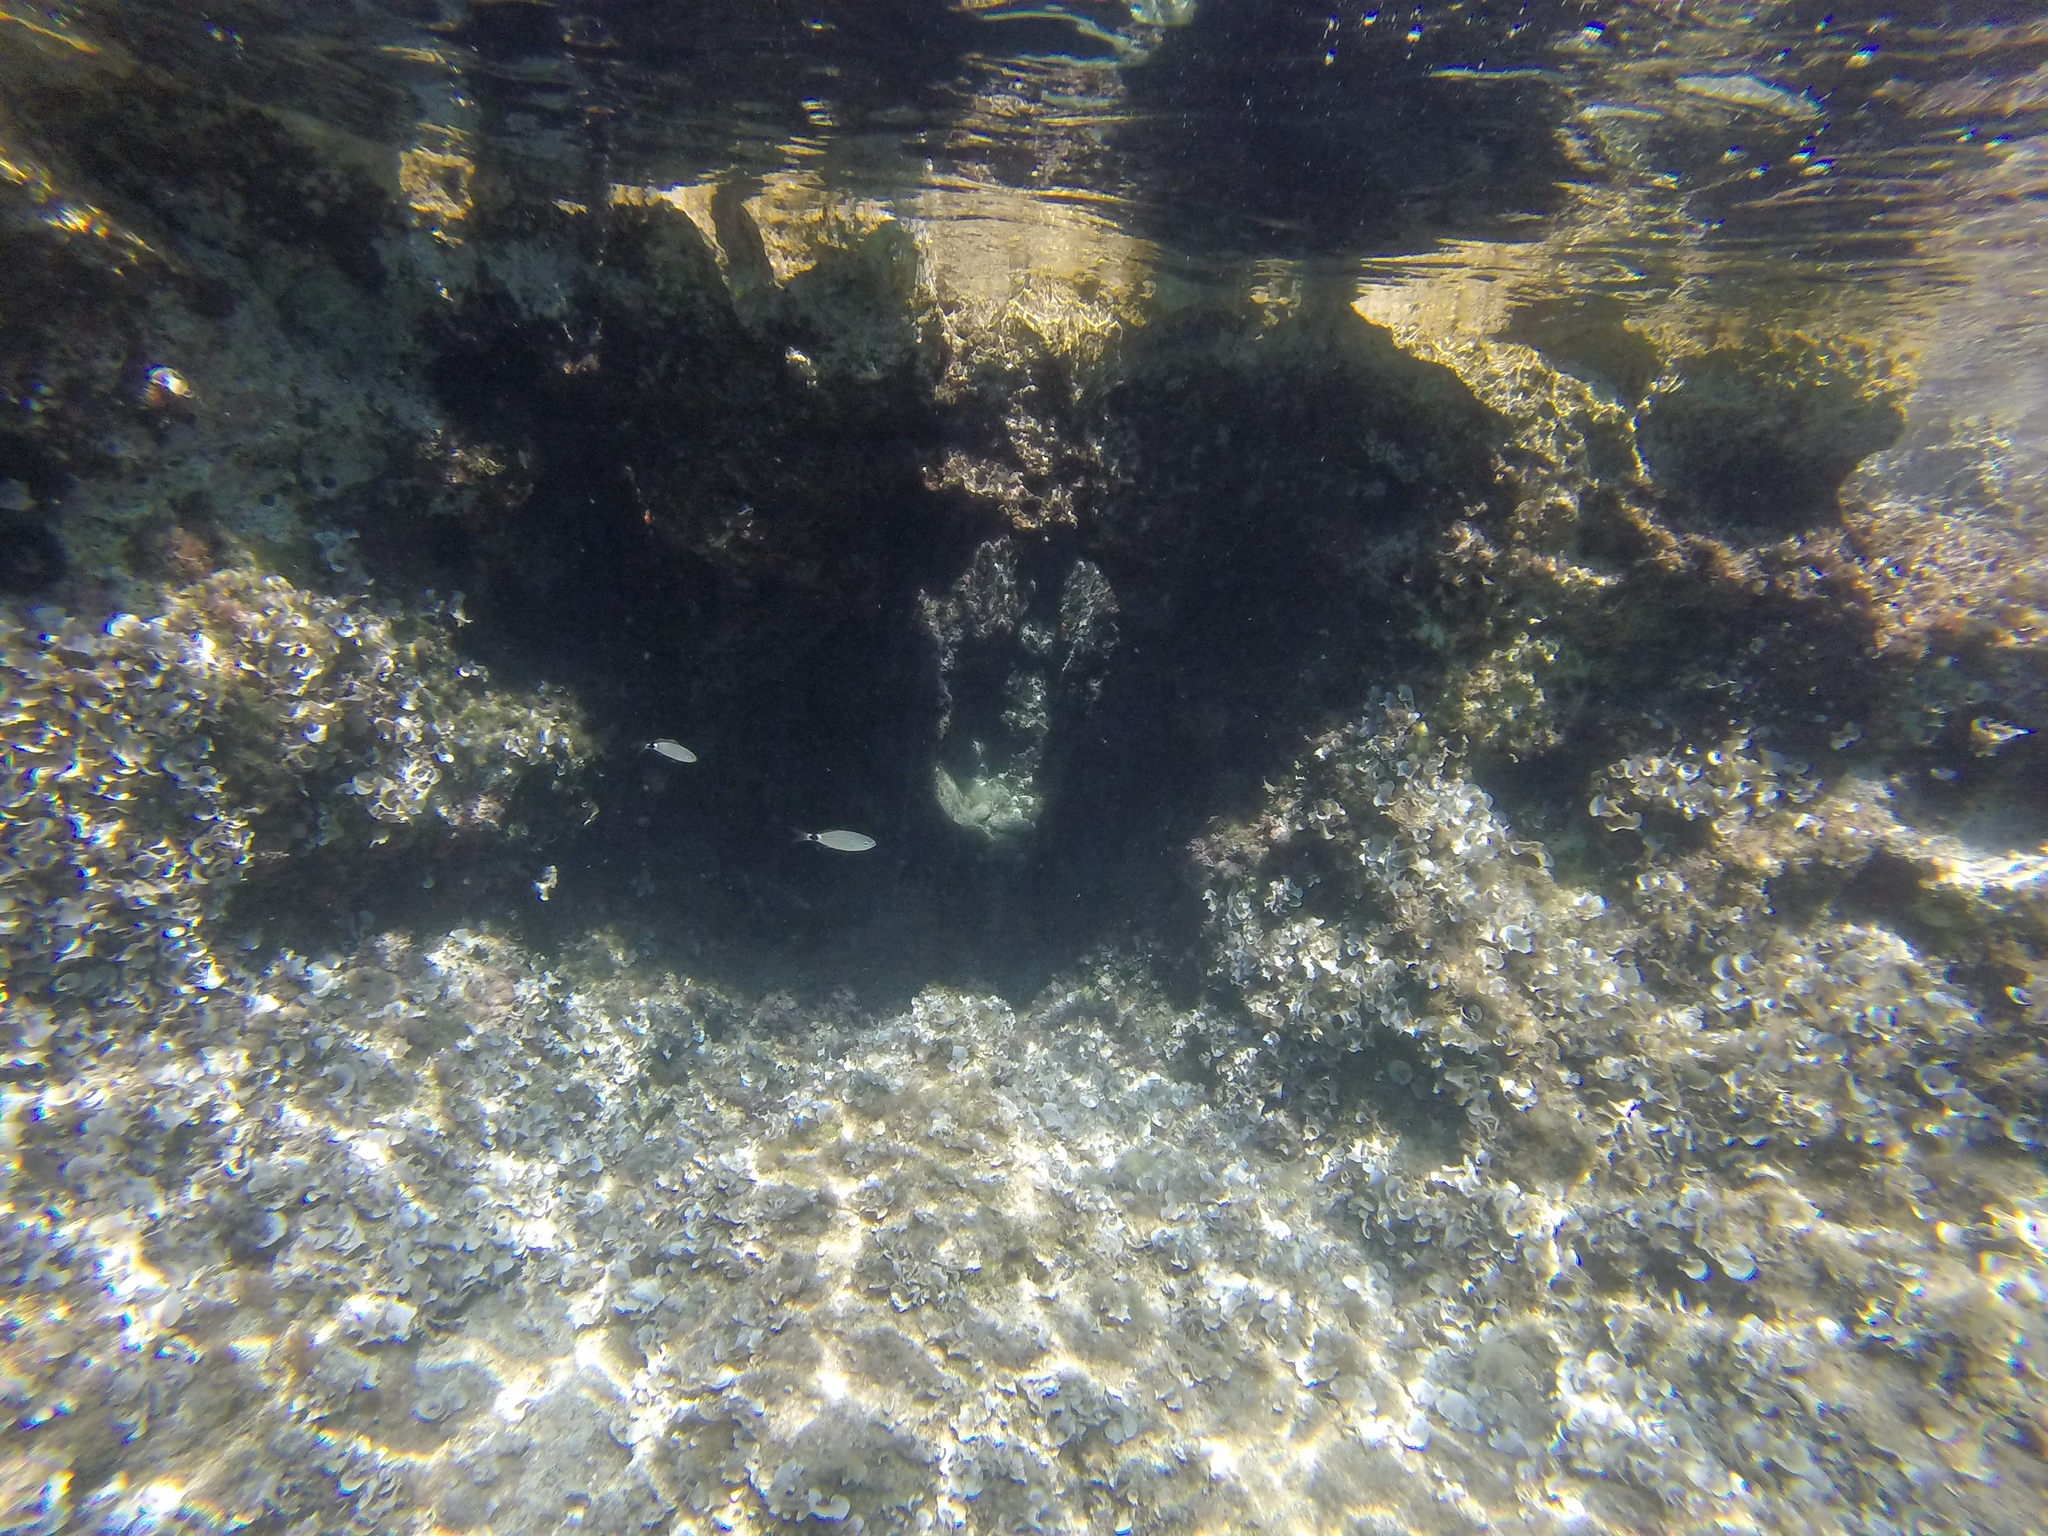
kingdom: Animalia
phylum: Chordata
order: Perciformes
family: Sparidae
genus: Oblada
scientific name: Oblada melanura
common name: Saddled seabream
